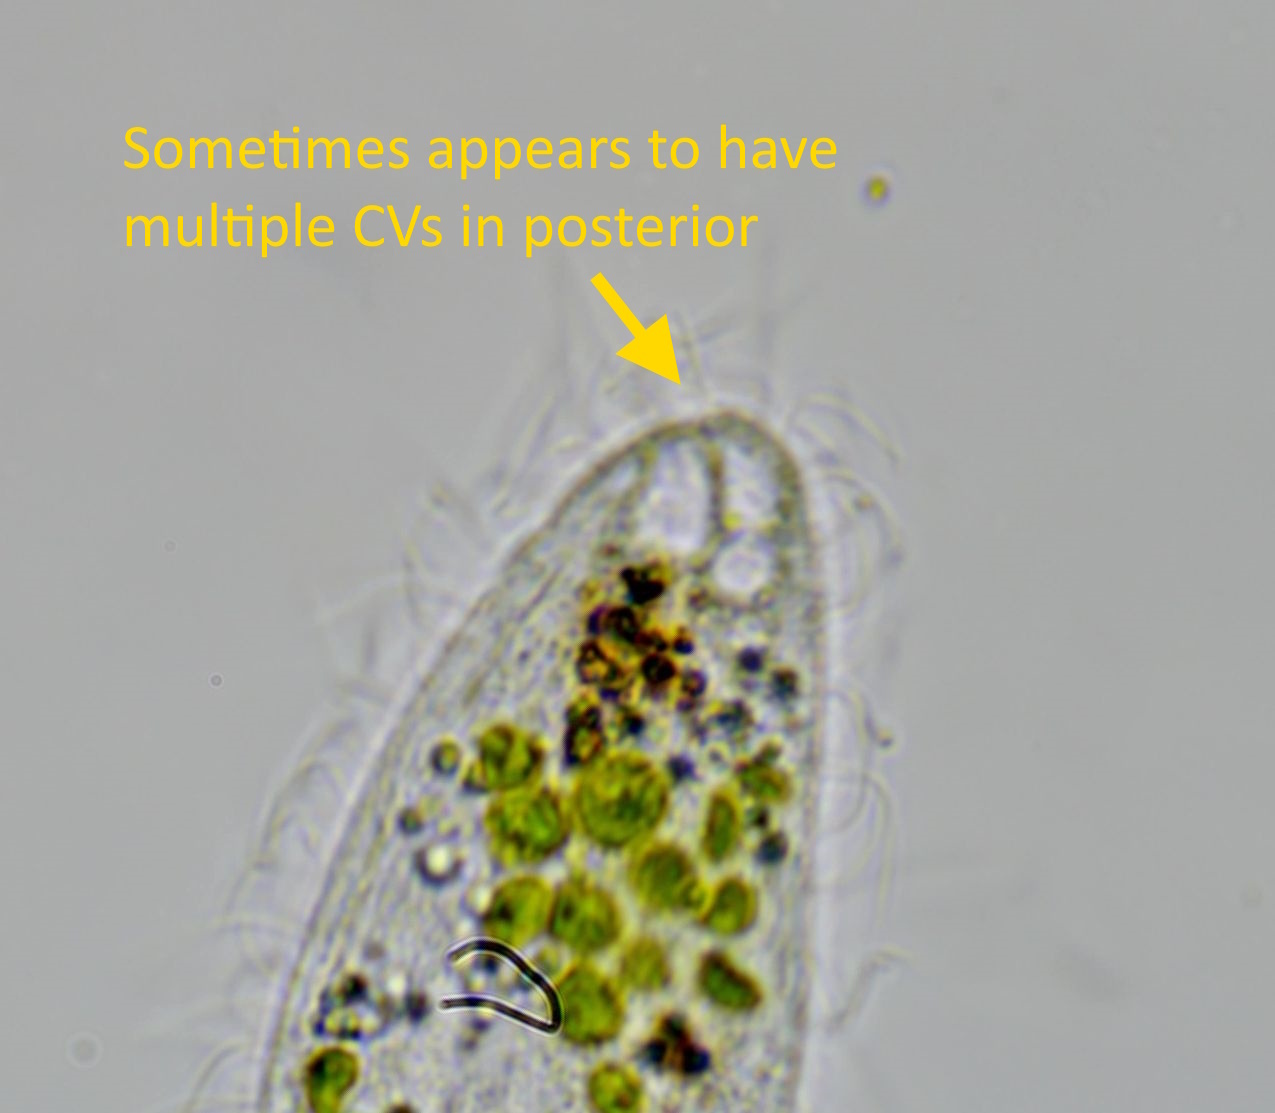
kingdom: Chromista
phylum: Ciliophora
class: Gymnostomatea
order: Haptorida
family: Enchelyidae
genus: Ileonema
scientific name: Ileonema
